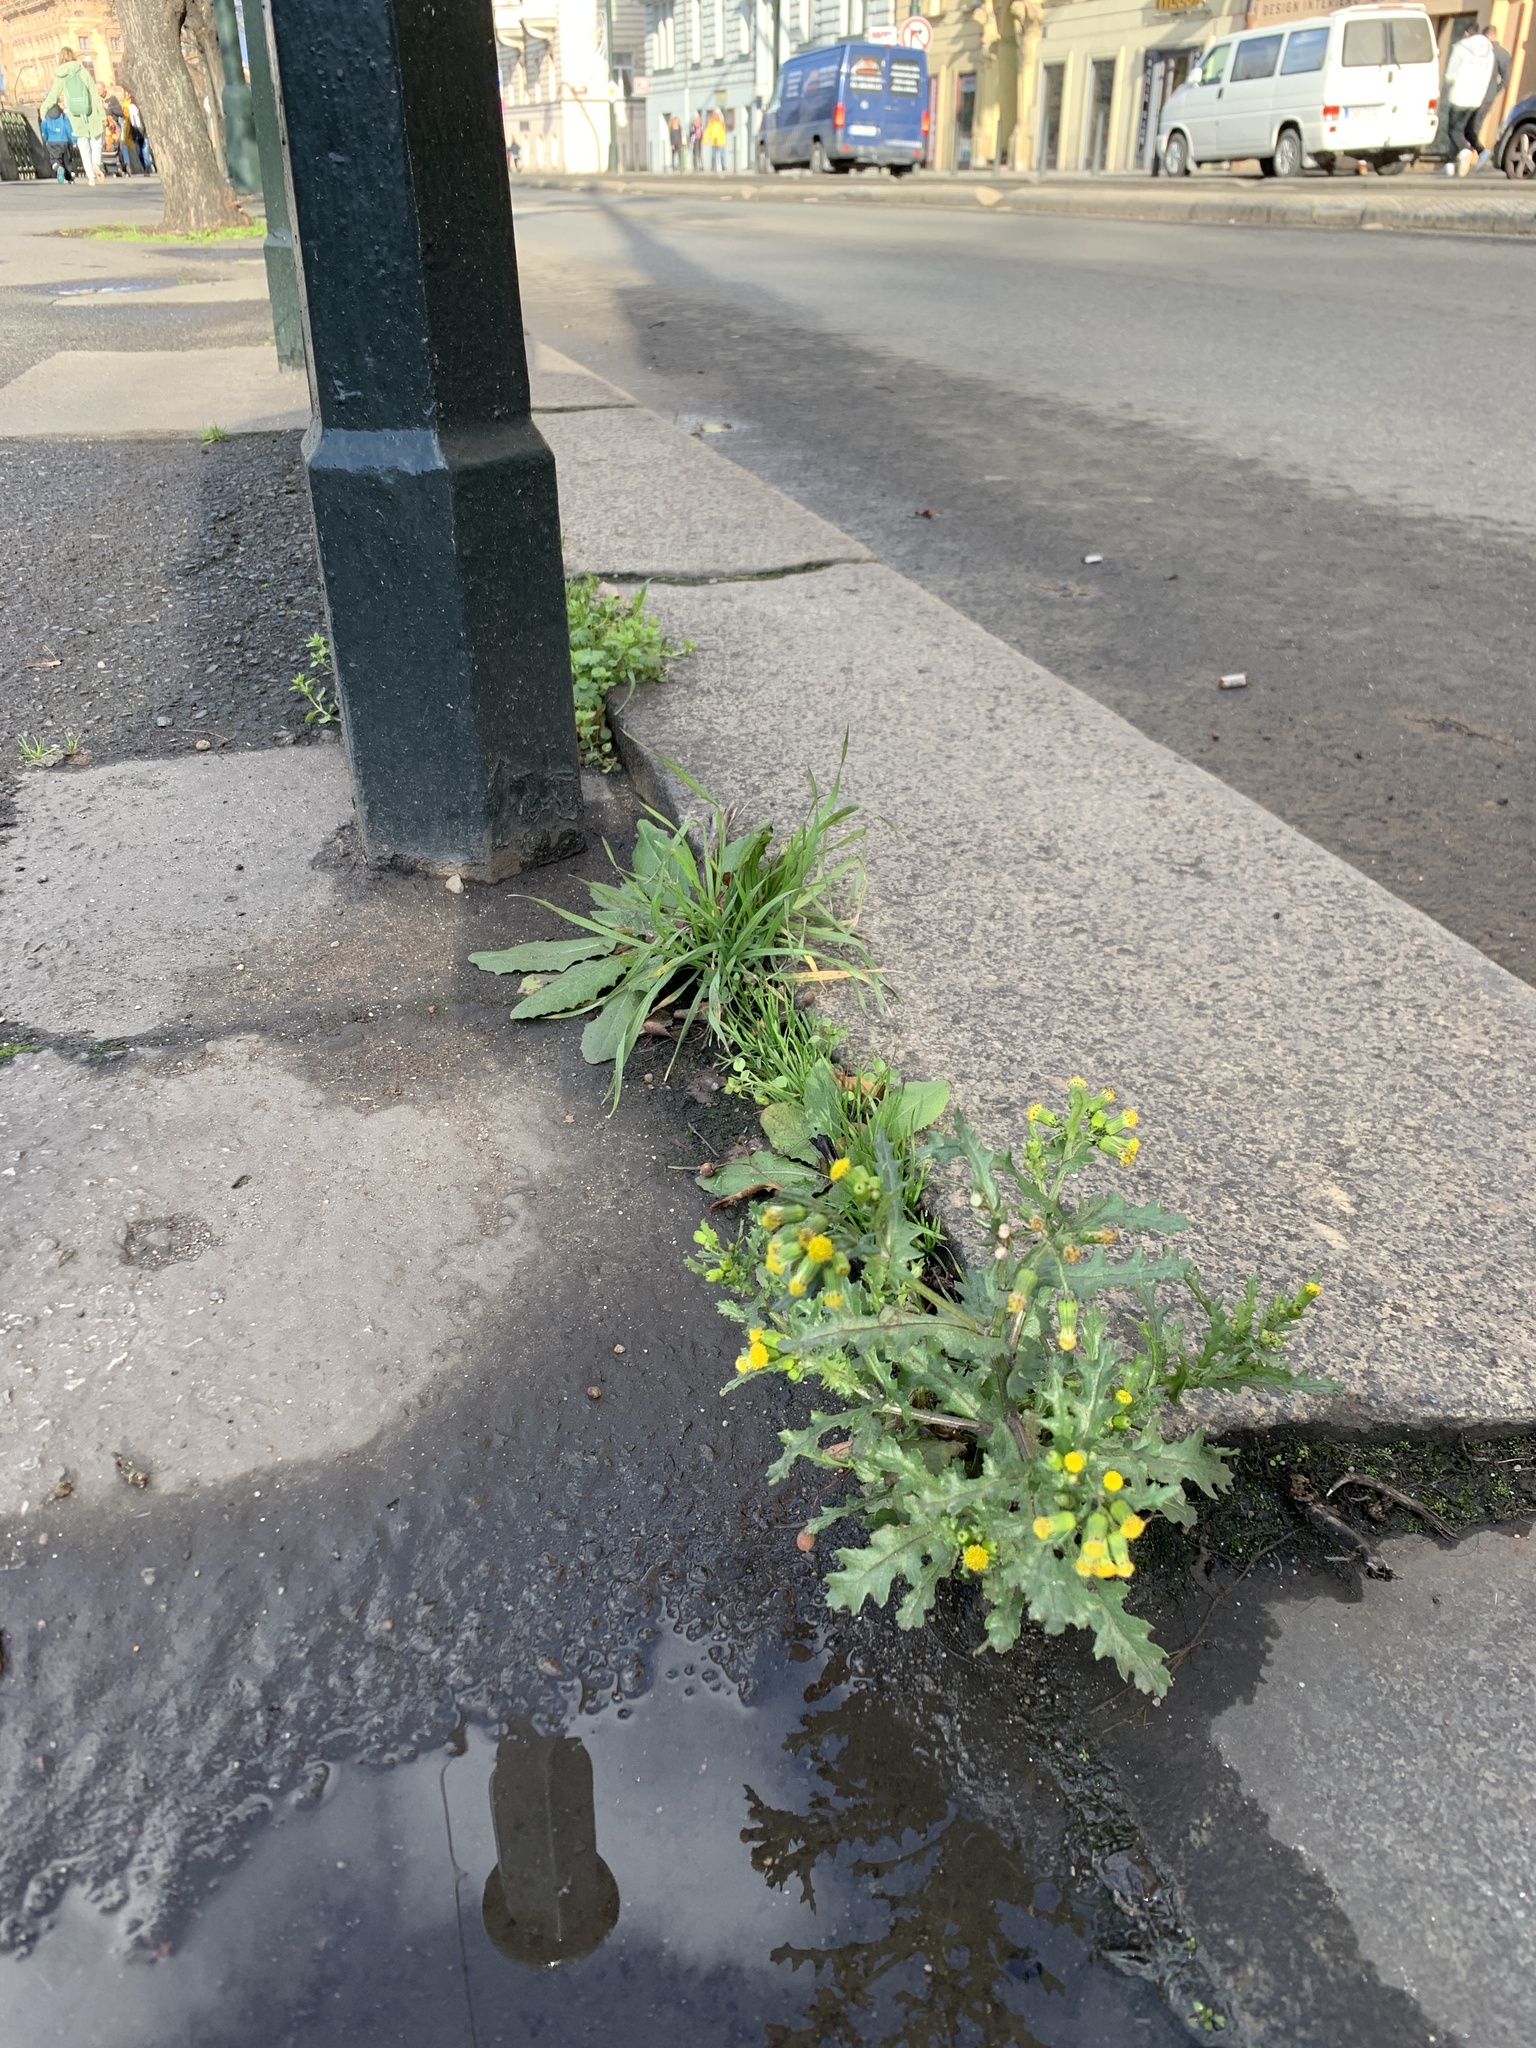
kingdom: Plantae
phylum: Tracheophyta
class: Magnoliopsida
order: Asterales
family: Asteraceae
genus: Senecio
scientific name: Senecio vulgaris
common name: Old-man-in-the-spring
